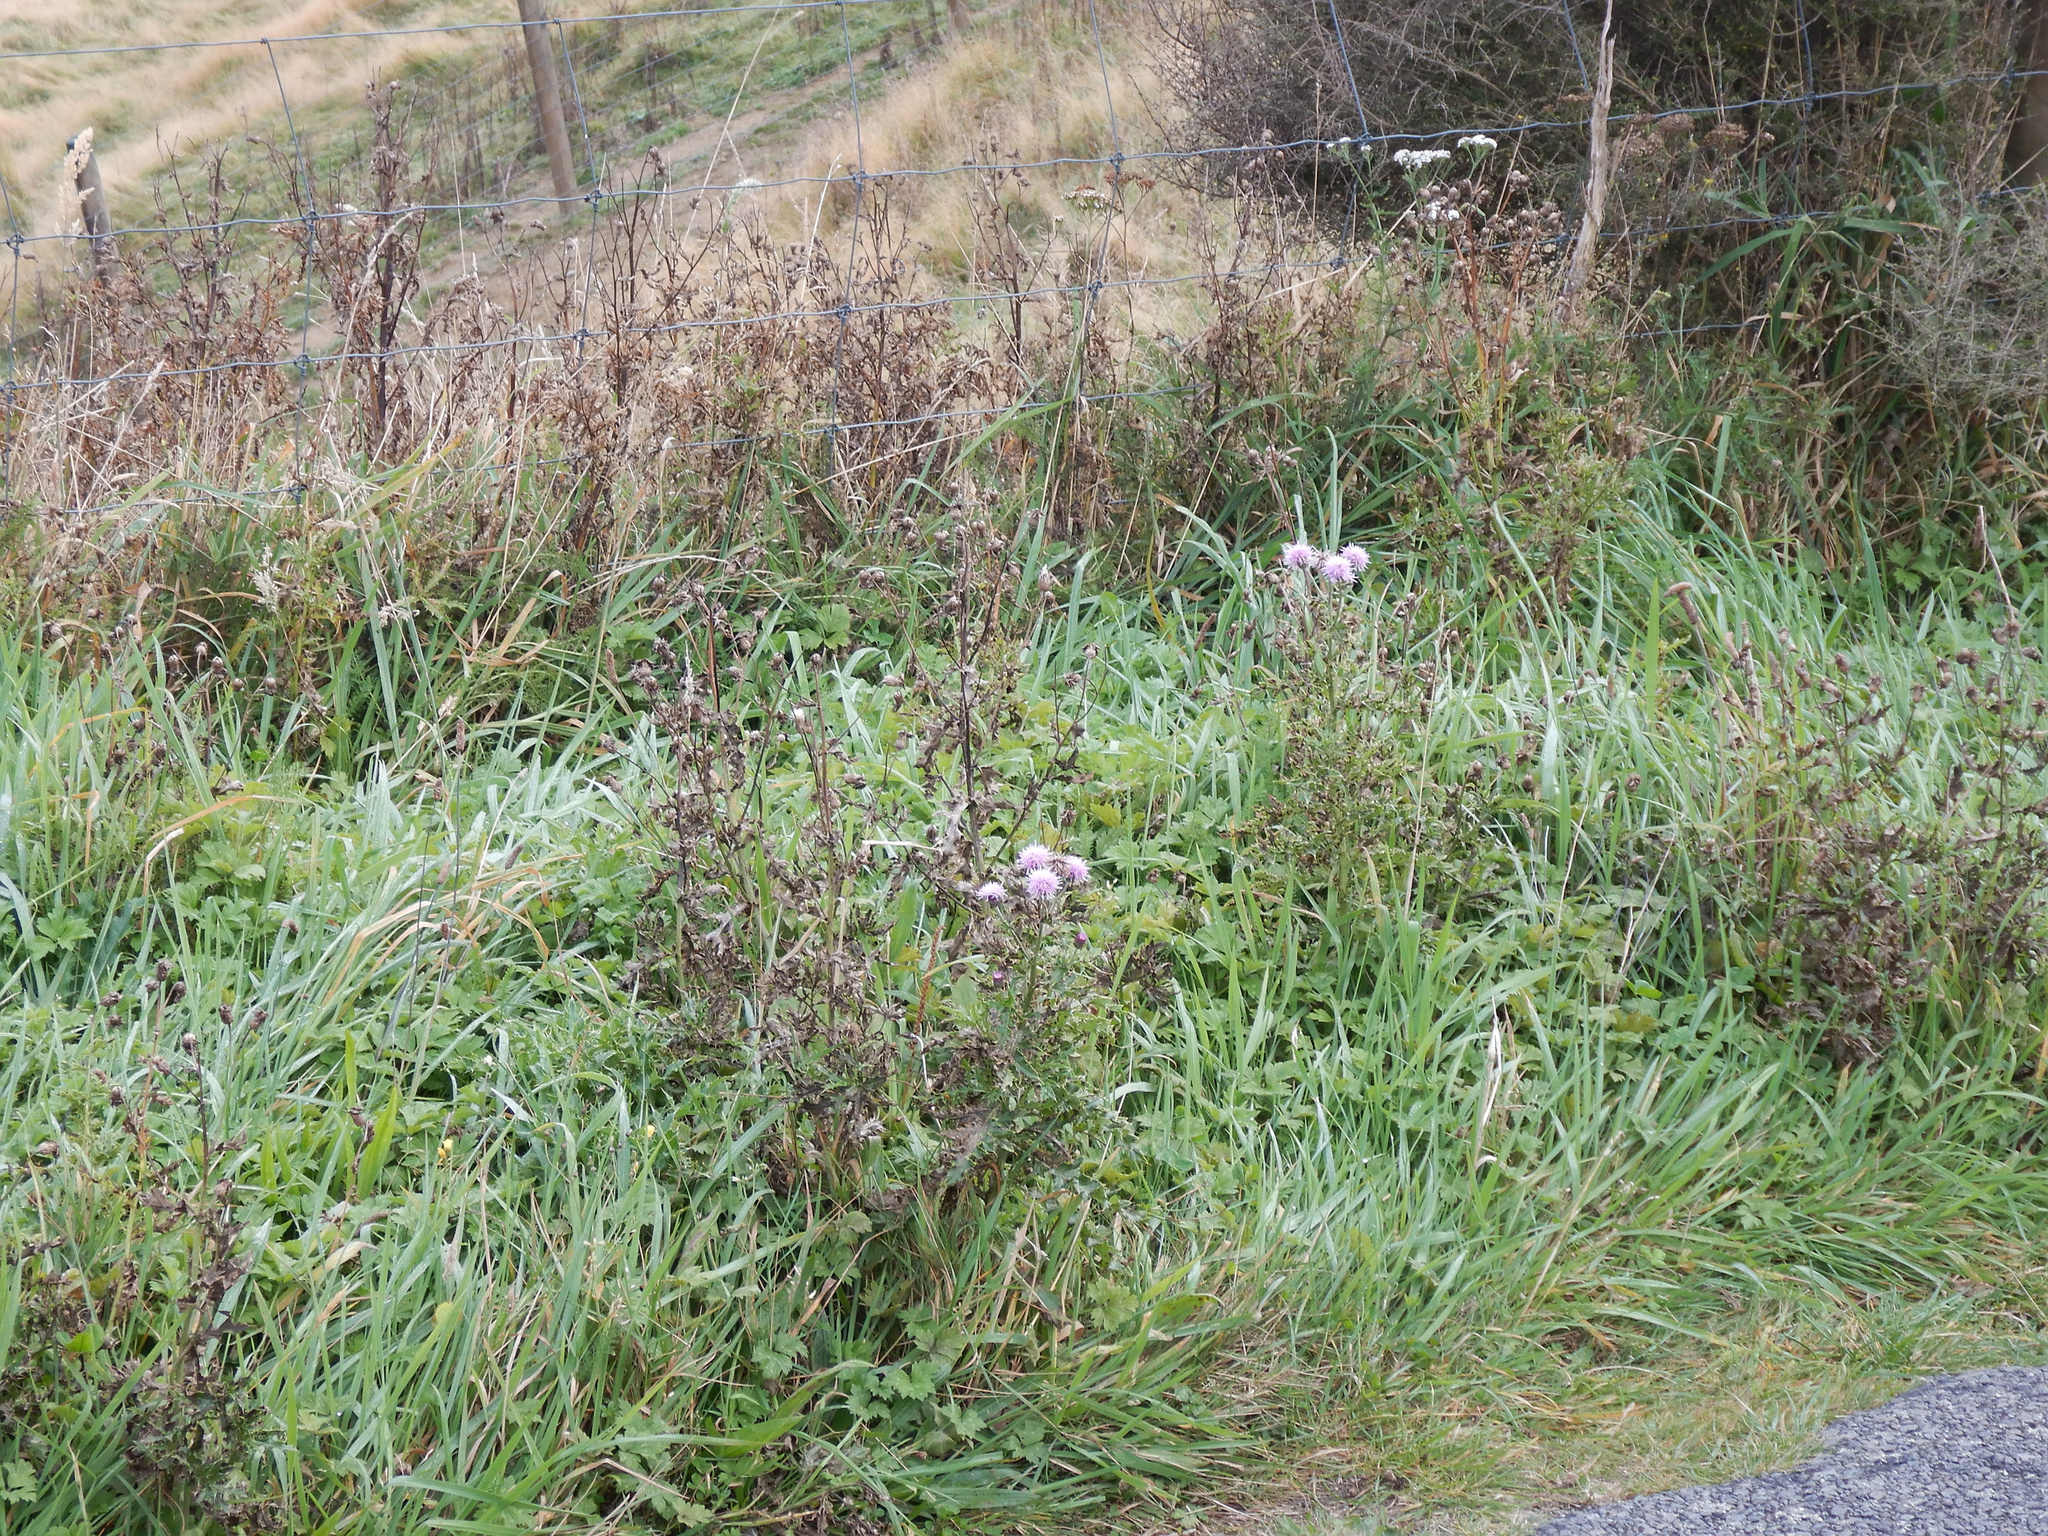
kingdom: Plantae
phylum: Tracheophyta
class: Magnoliopsida
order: Asterales
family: Asteraceae
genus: Cirsium
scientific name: Cirsium arvense
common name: Creeping thistle
